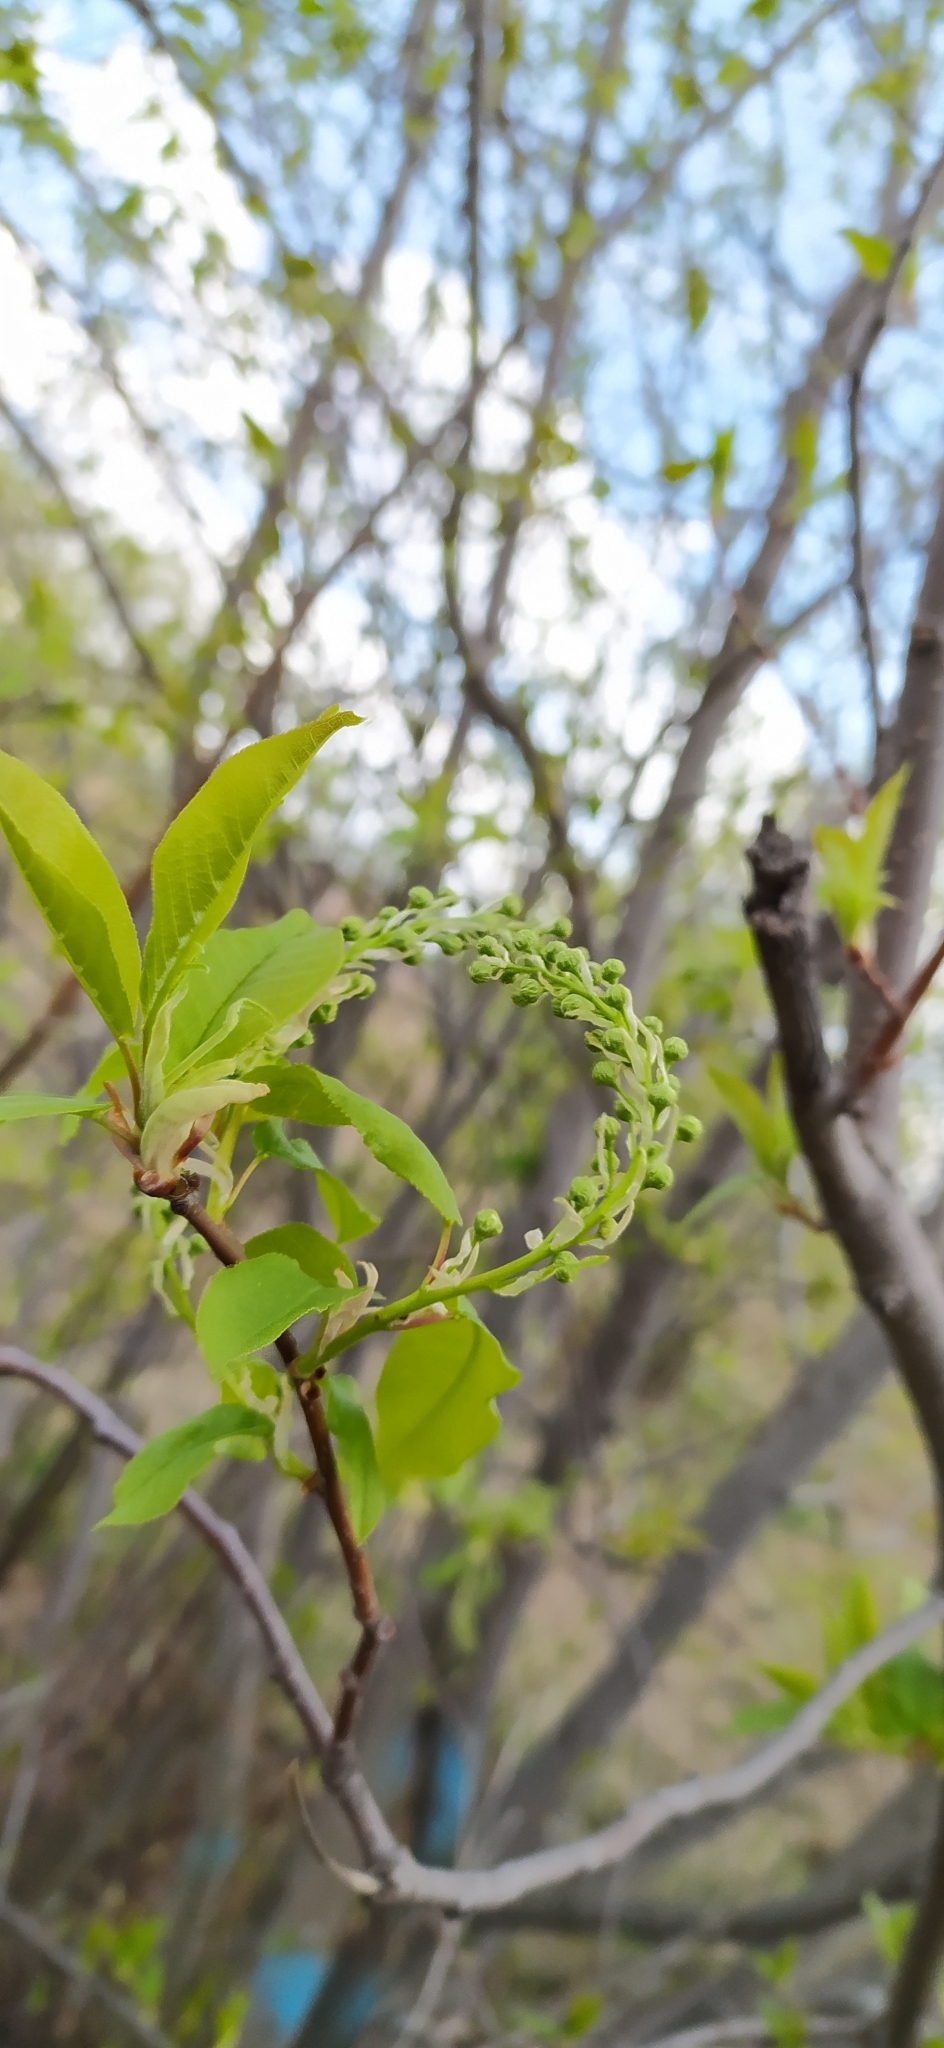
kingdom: Plantae
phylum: Tracheophyta
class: Magnoliopsida
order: Rosales
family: Rosaceae
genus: Prunus
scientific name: Prunus padus
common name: Bird cherry
